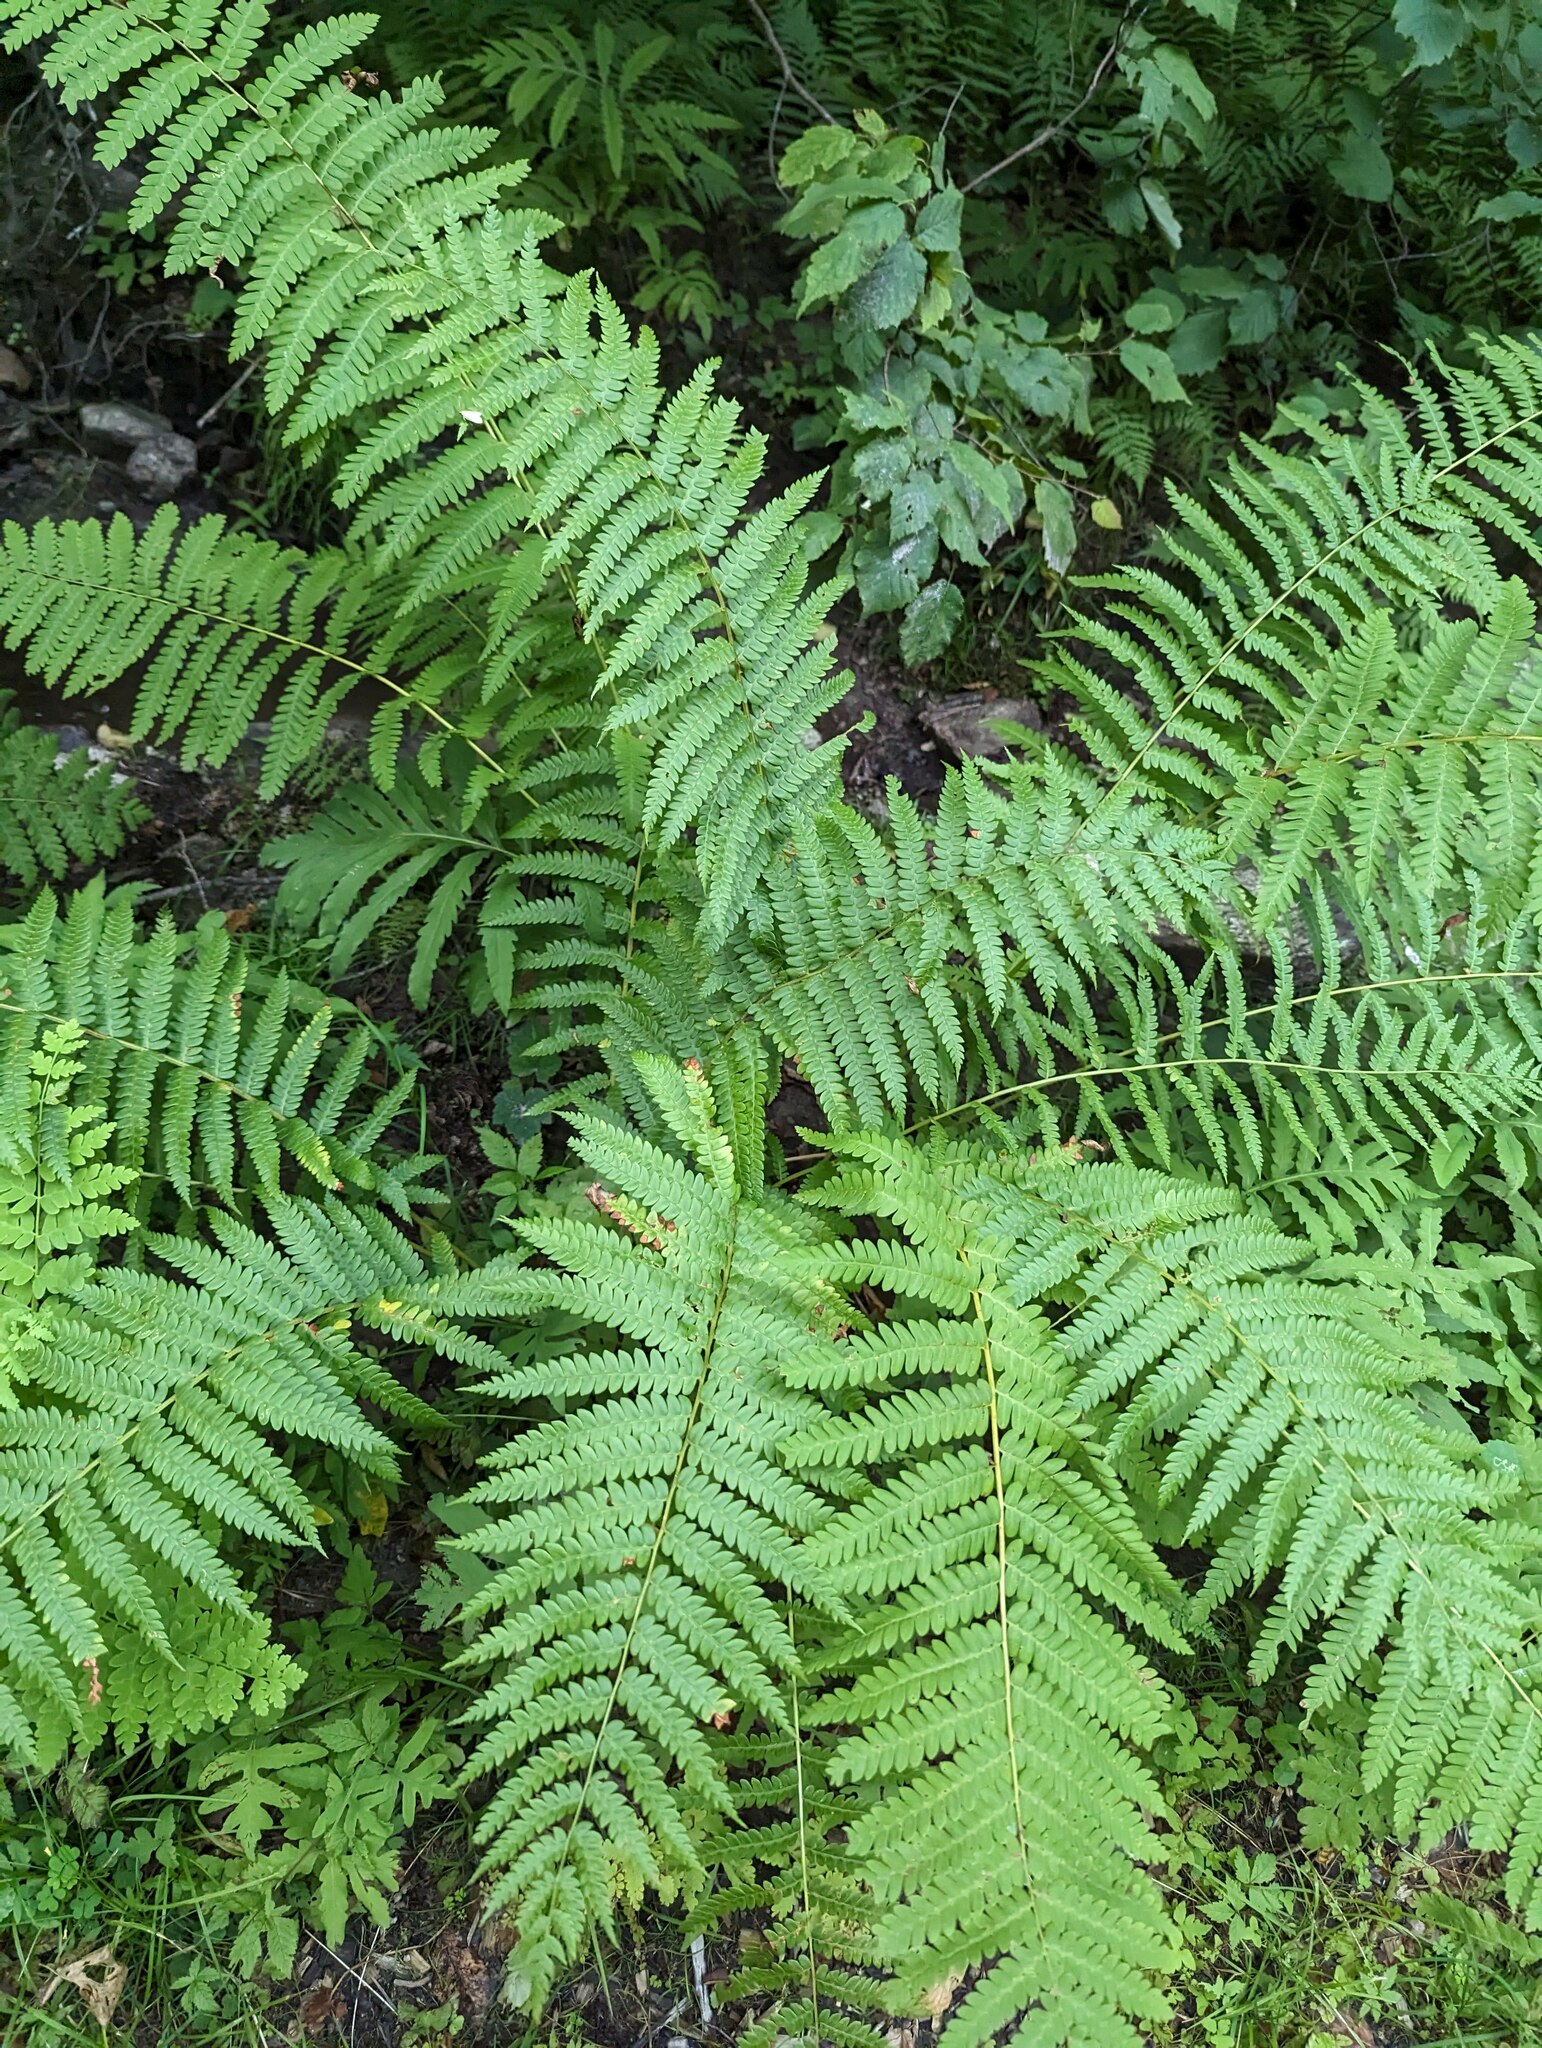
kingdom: Plantae
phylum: Tracheophyta
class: Polypodiopsida
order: Osmundales
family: Osmundaceae
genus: Osmundastrum
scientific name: Osmundastrum cinnamomeum
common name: Cinnamon fern
